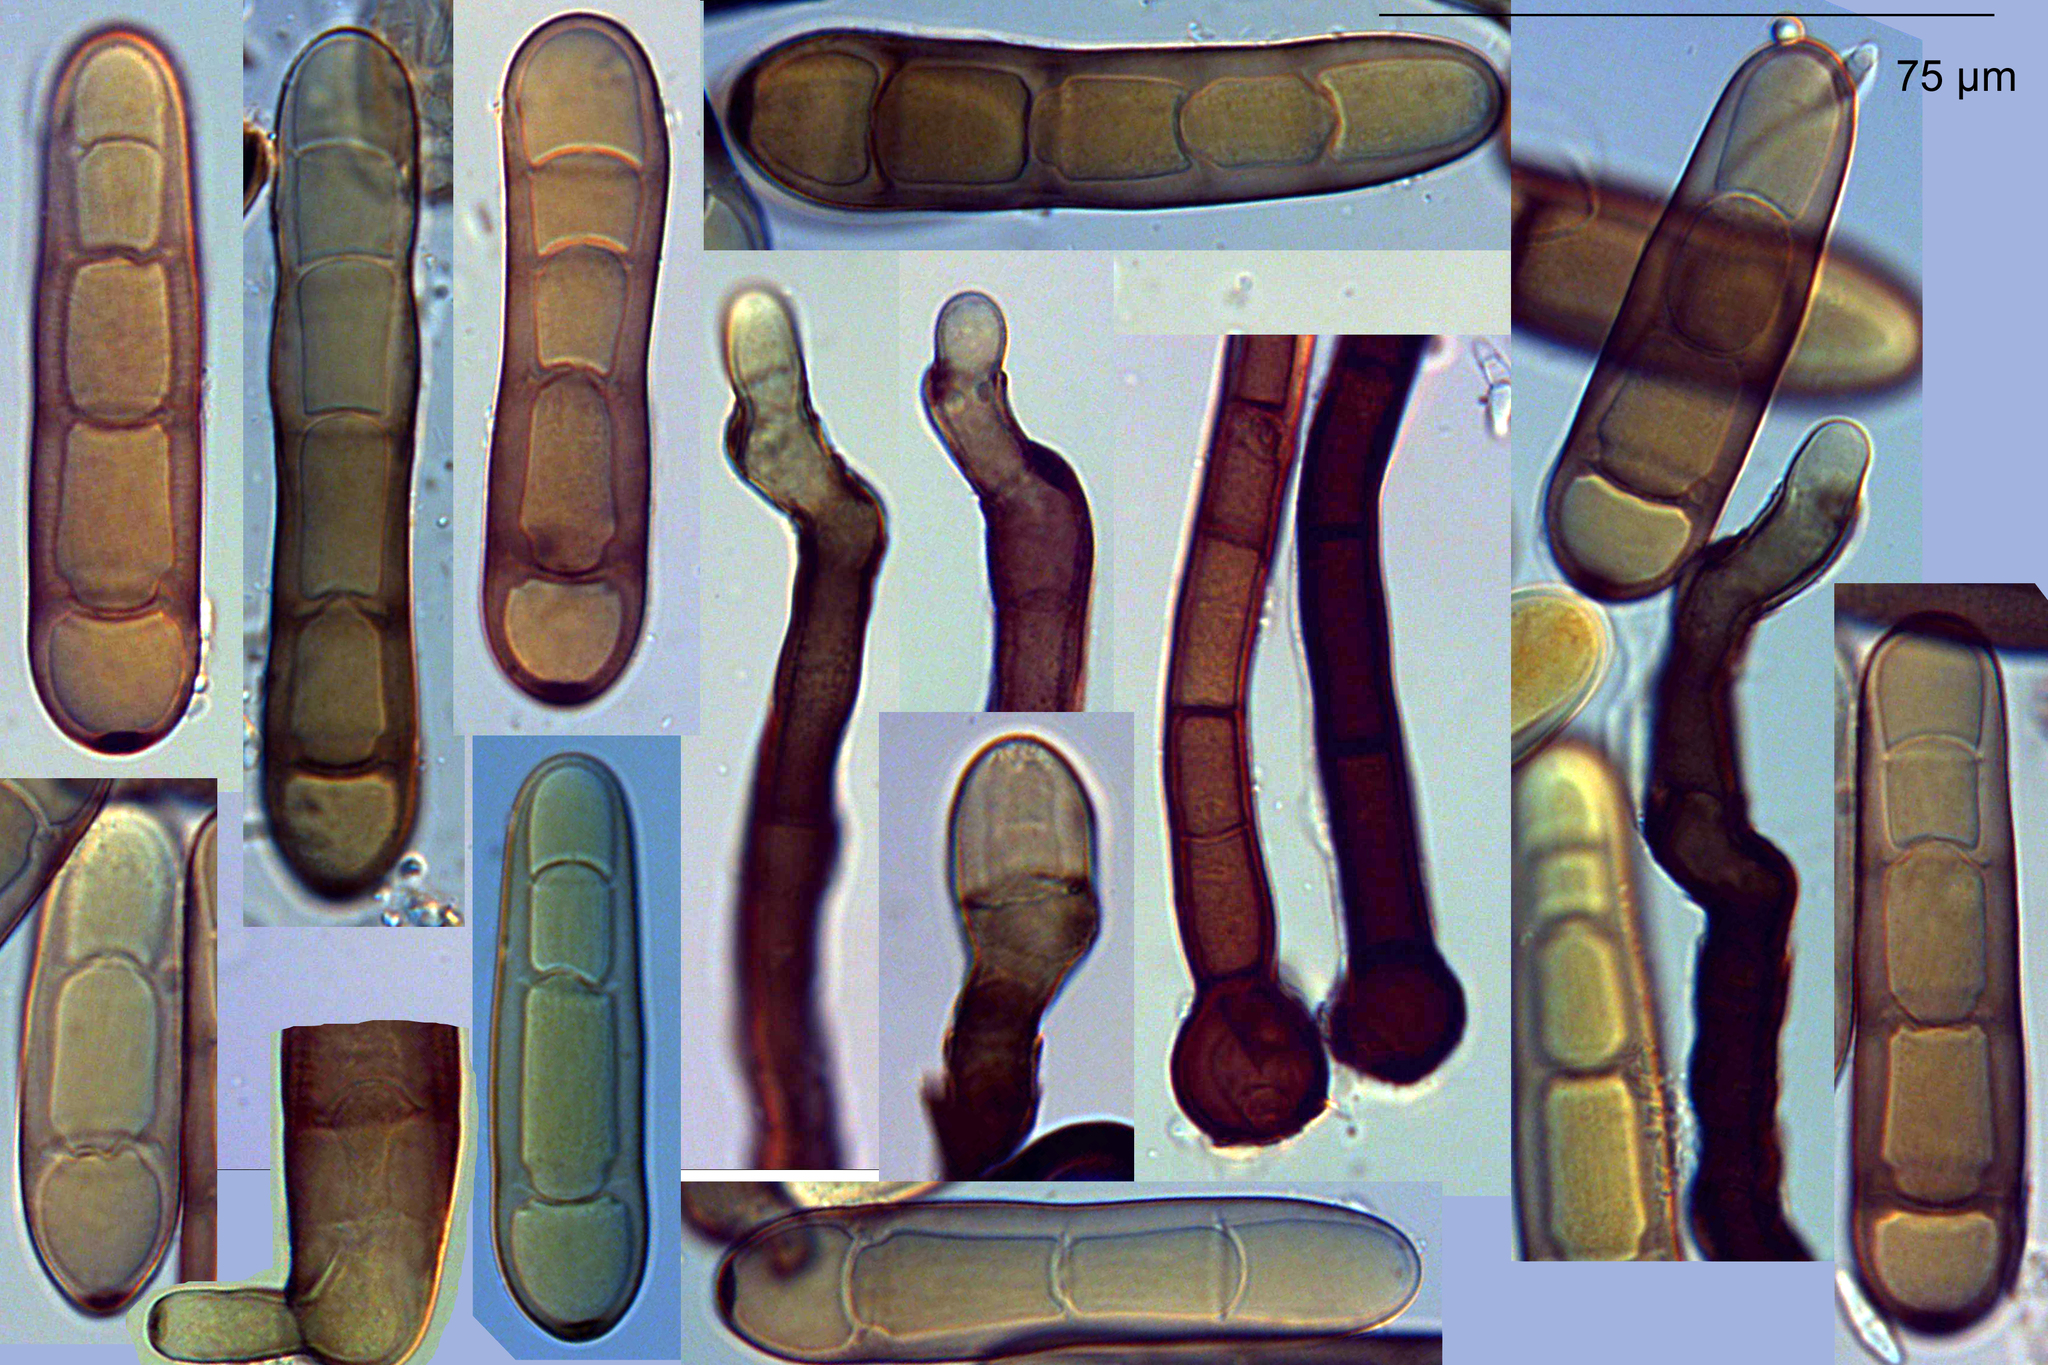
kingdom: Fungi
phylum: Ascomycota
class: Dothideomycetes
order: Pleosporales
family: Pleosporaceae
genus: Pyrenophora
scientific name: Pyrenophora graminea
